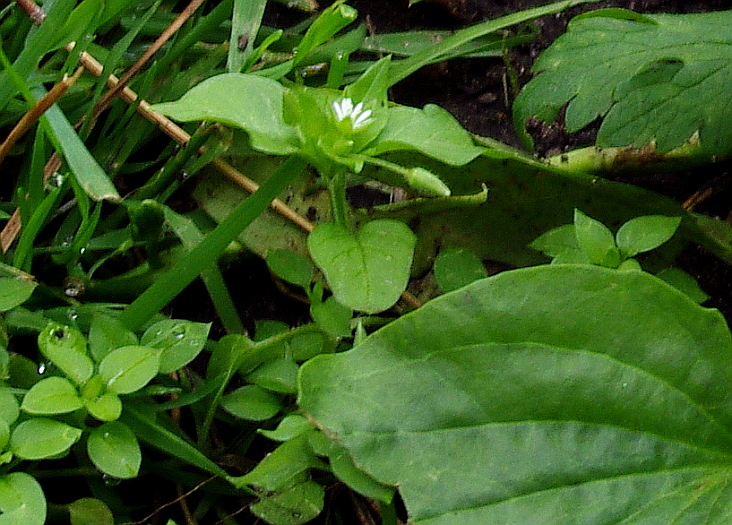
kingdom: Plantae
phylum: Tracheophyta
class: Magnoliopsida
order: Caryophyllales
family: Caryophyllaceae
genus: Stellaria
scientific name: Stellaria media
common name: Common chickweed
